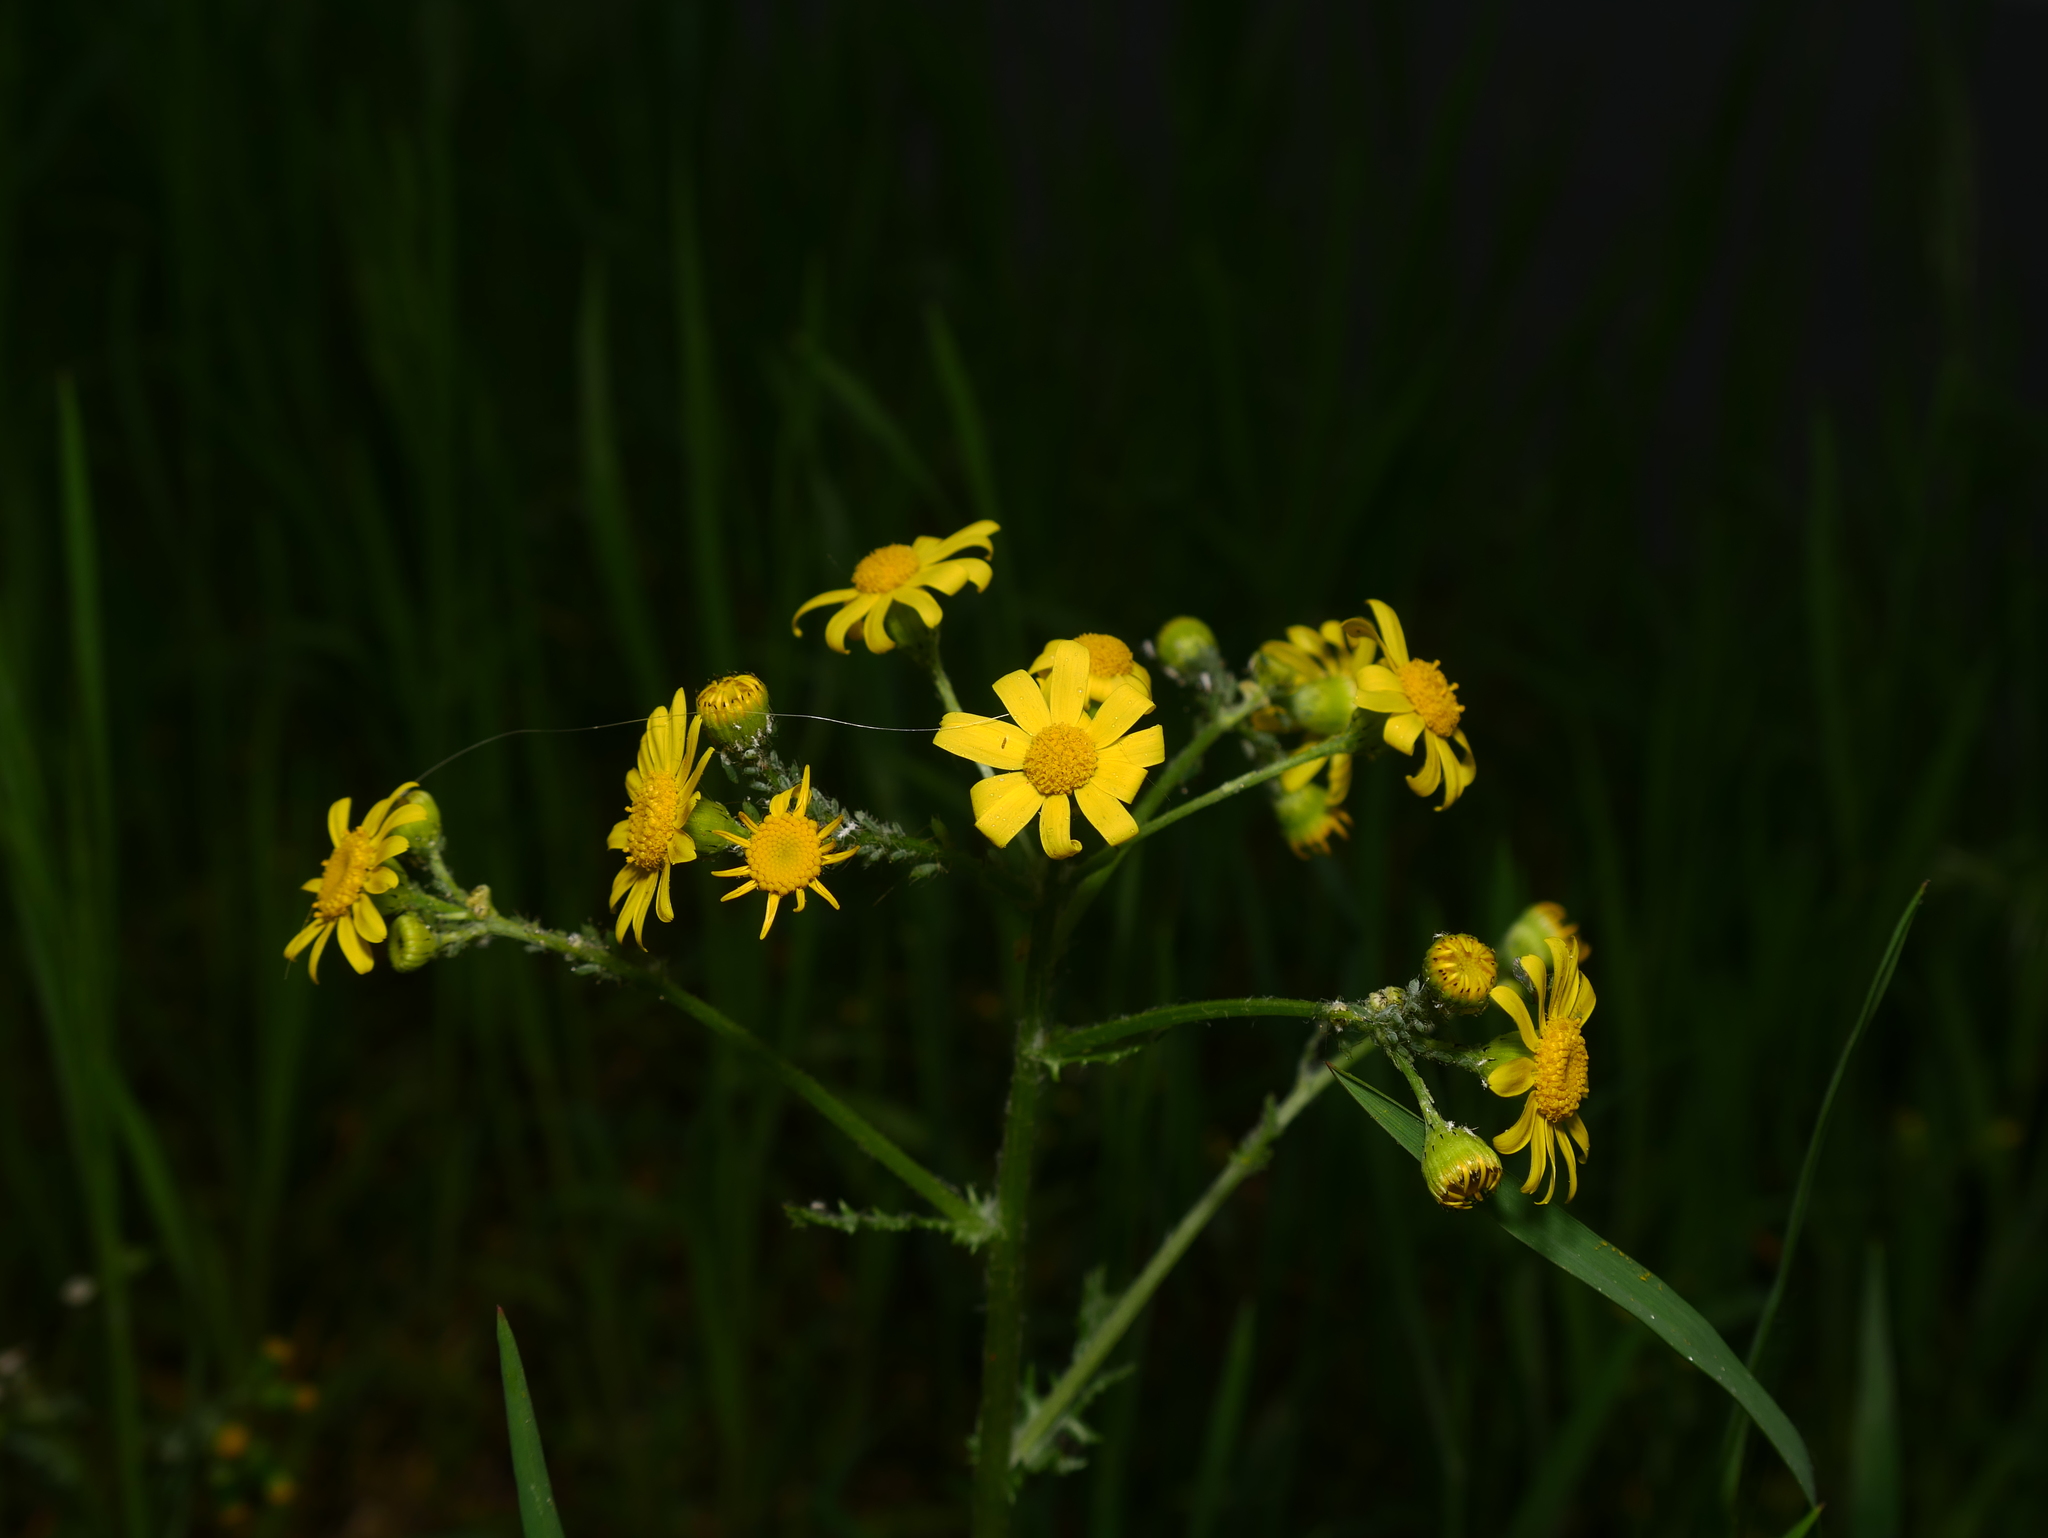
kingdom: Plantae
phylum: Tracheophyta
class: Magnoliopsida
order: Asterales
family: Asteraceae
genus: Senecio
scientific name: Senecio vernalis
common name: Eastern groundsel
